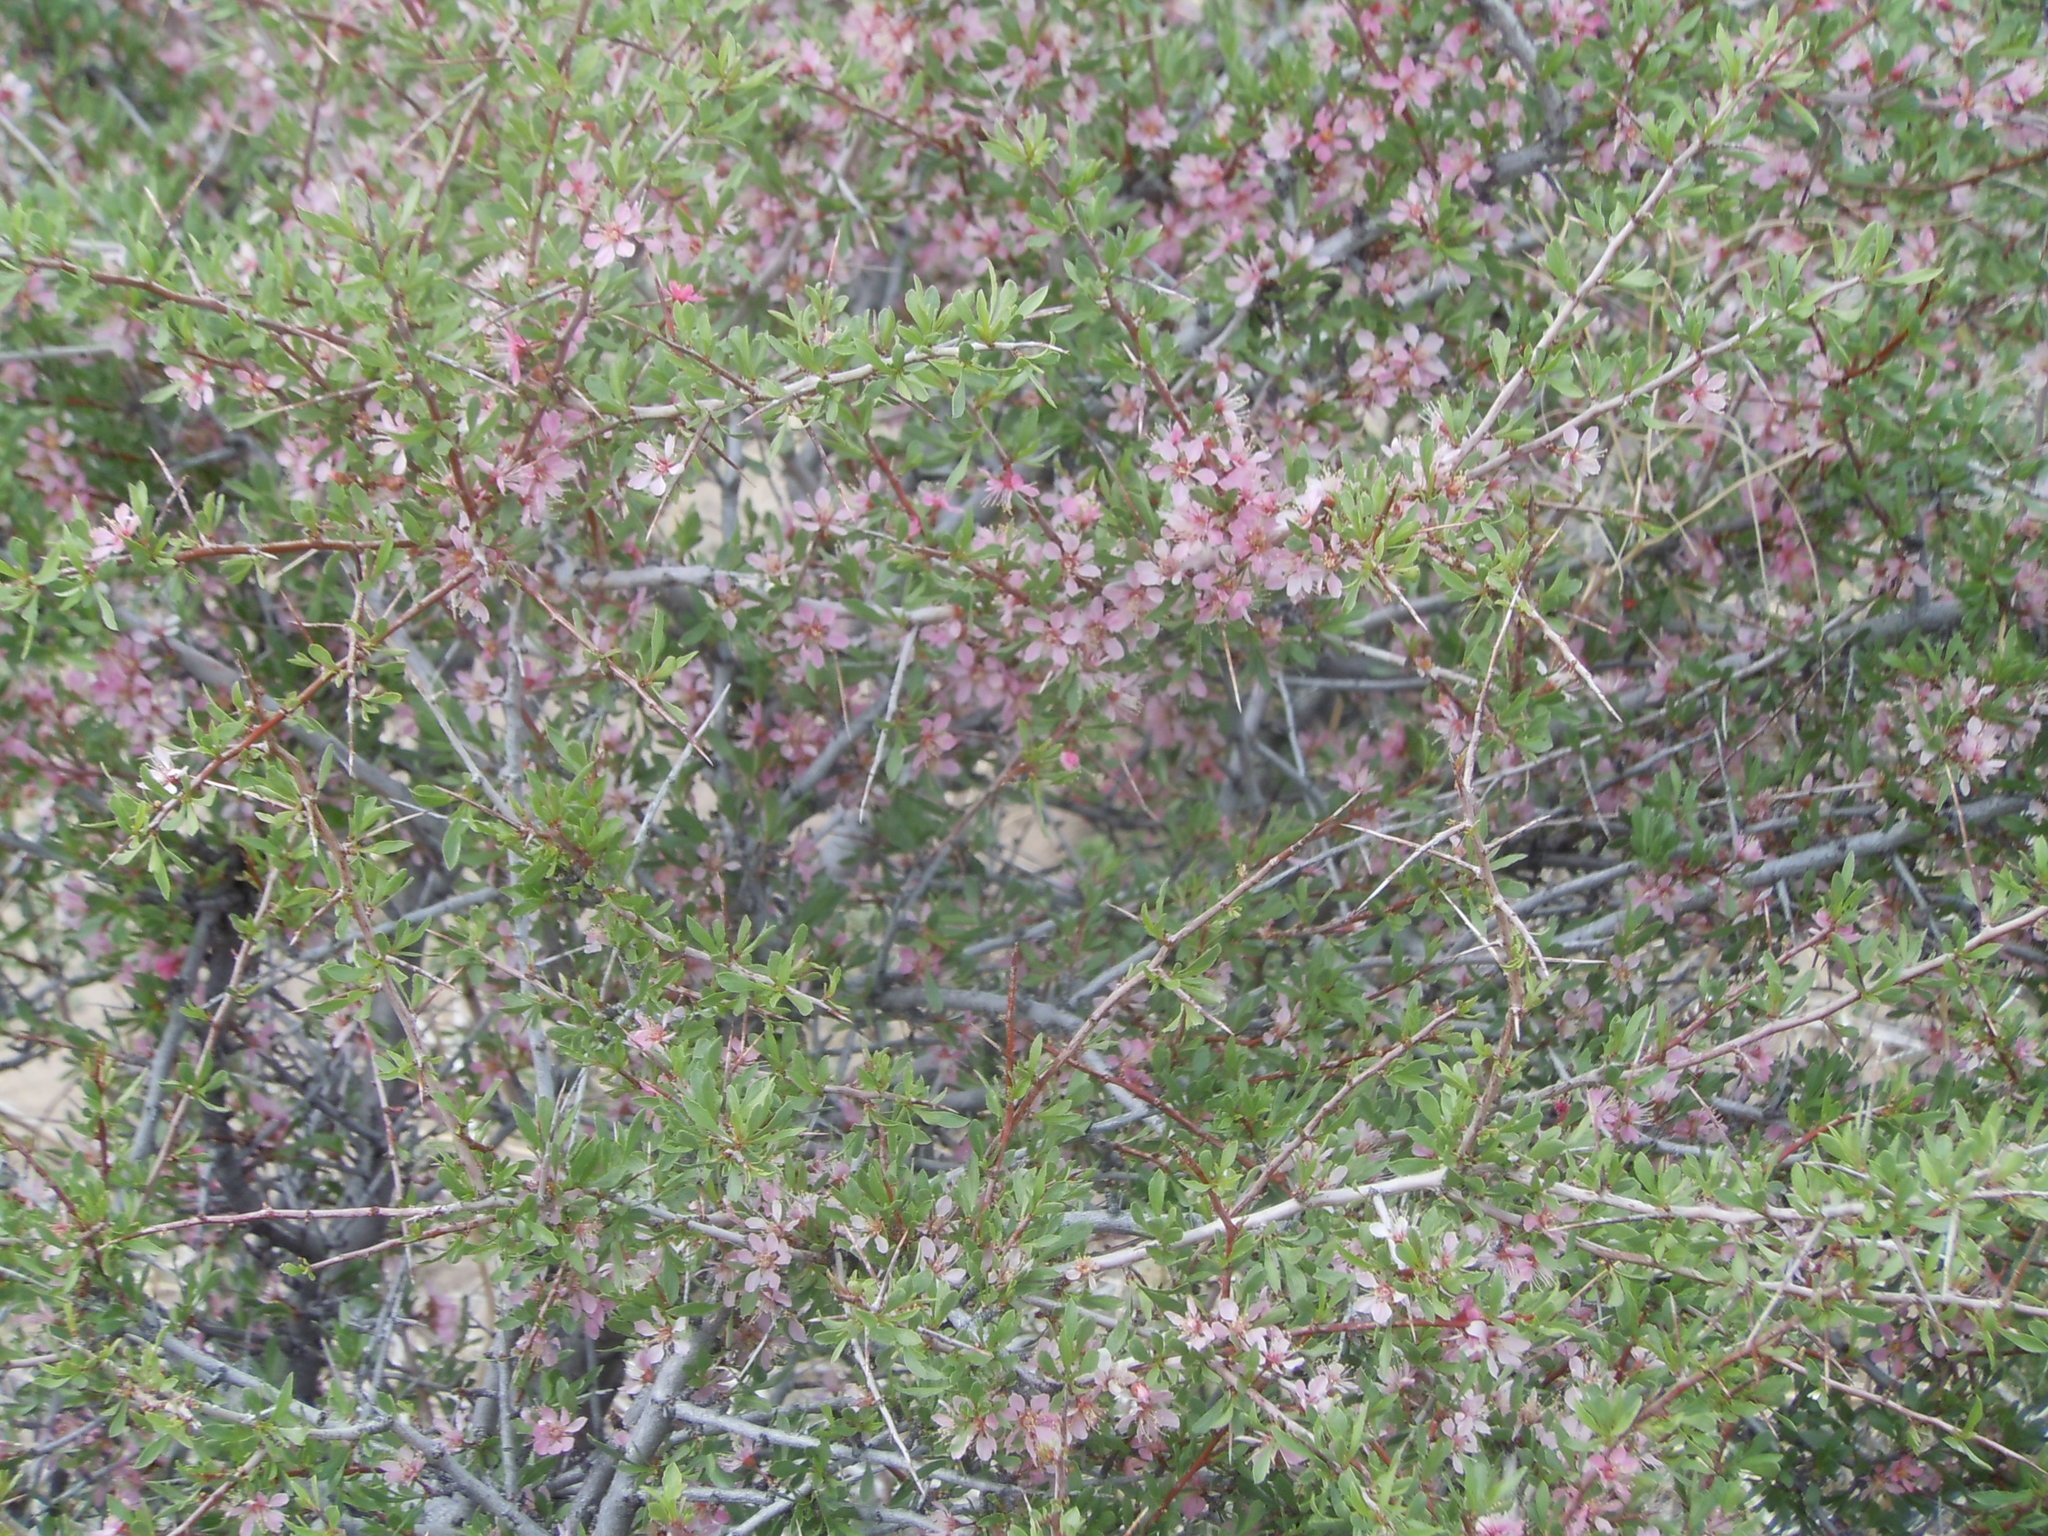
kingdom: Plantae
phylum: Tracheophyta
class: Magnoliopsida
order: Rosales
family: Rosaceae
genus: Prunus
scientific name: Prunus andersonii
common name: Desert peach
